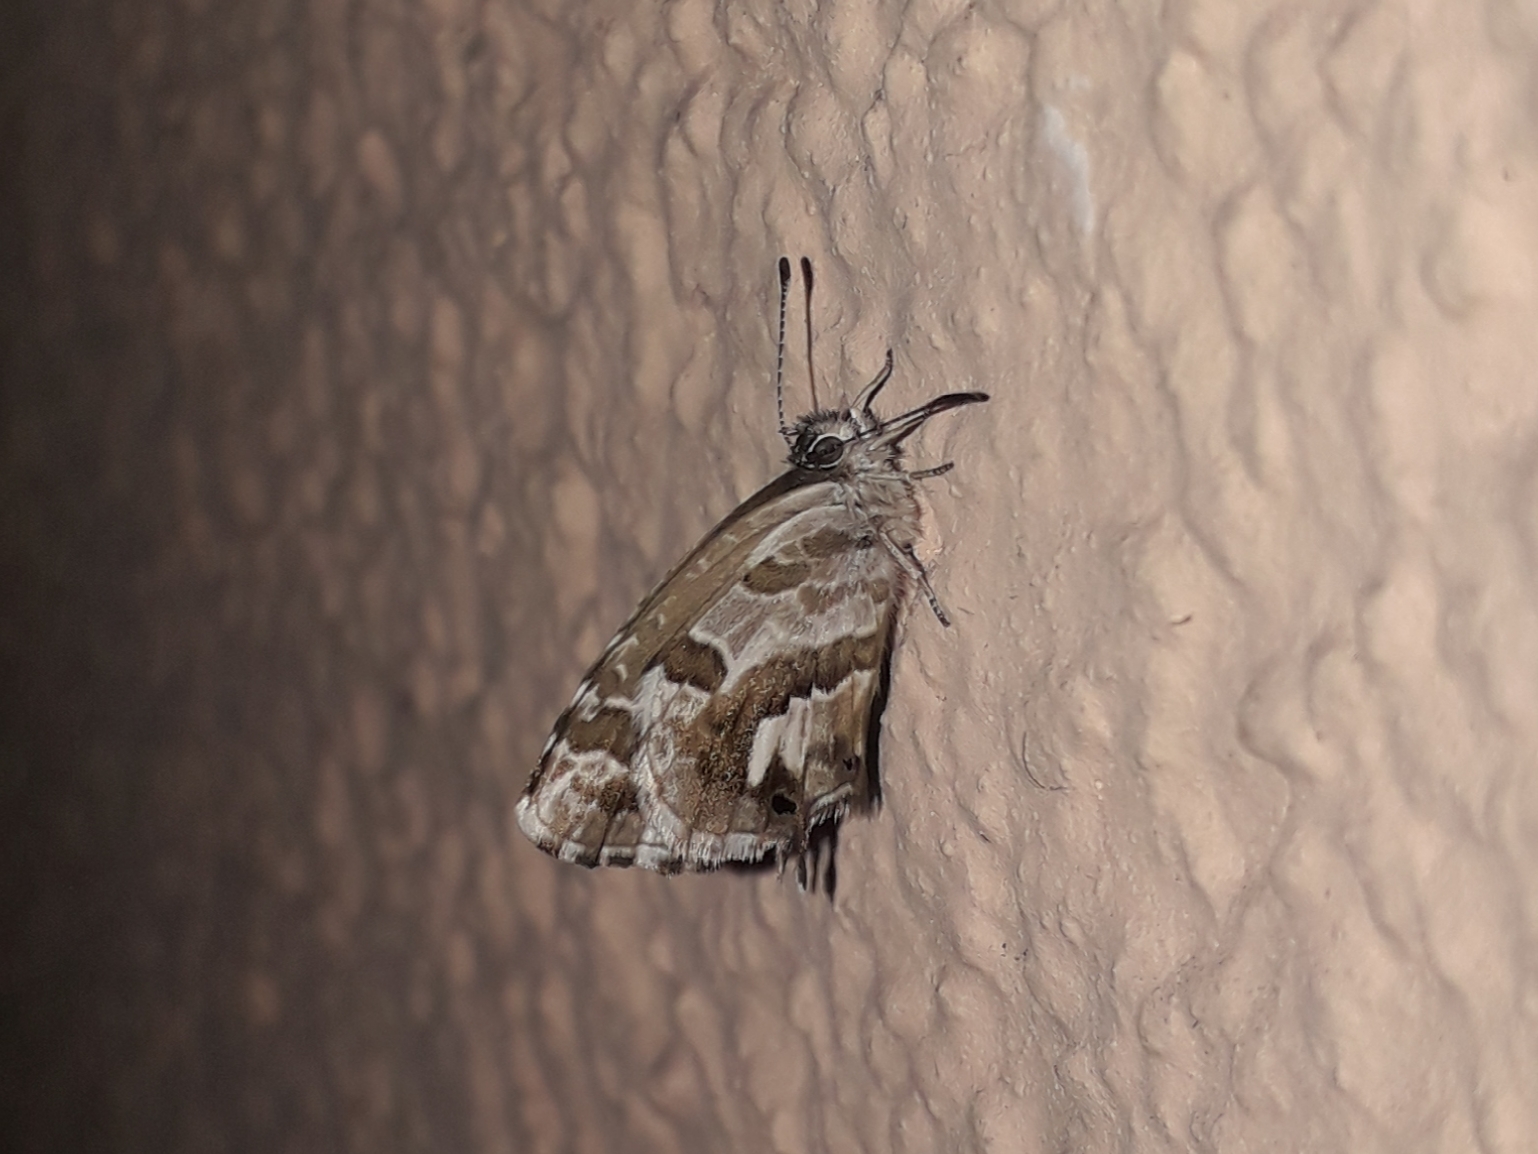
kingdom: Animalia
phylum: Arthropoda
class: Insecta
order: Lepidoptera
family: Lycaenidae
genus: Cacyreus
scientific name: Cacyreus marshalli
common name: Geranium bronze
